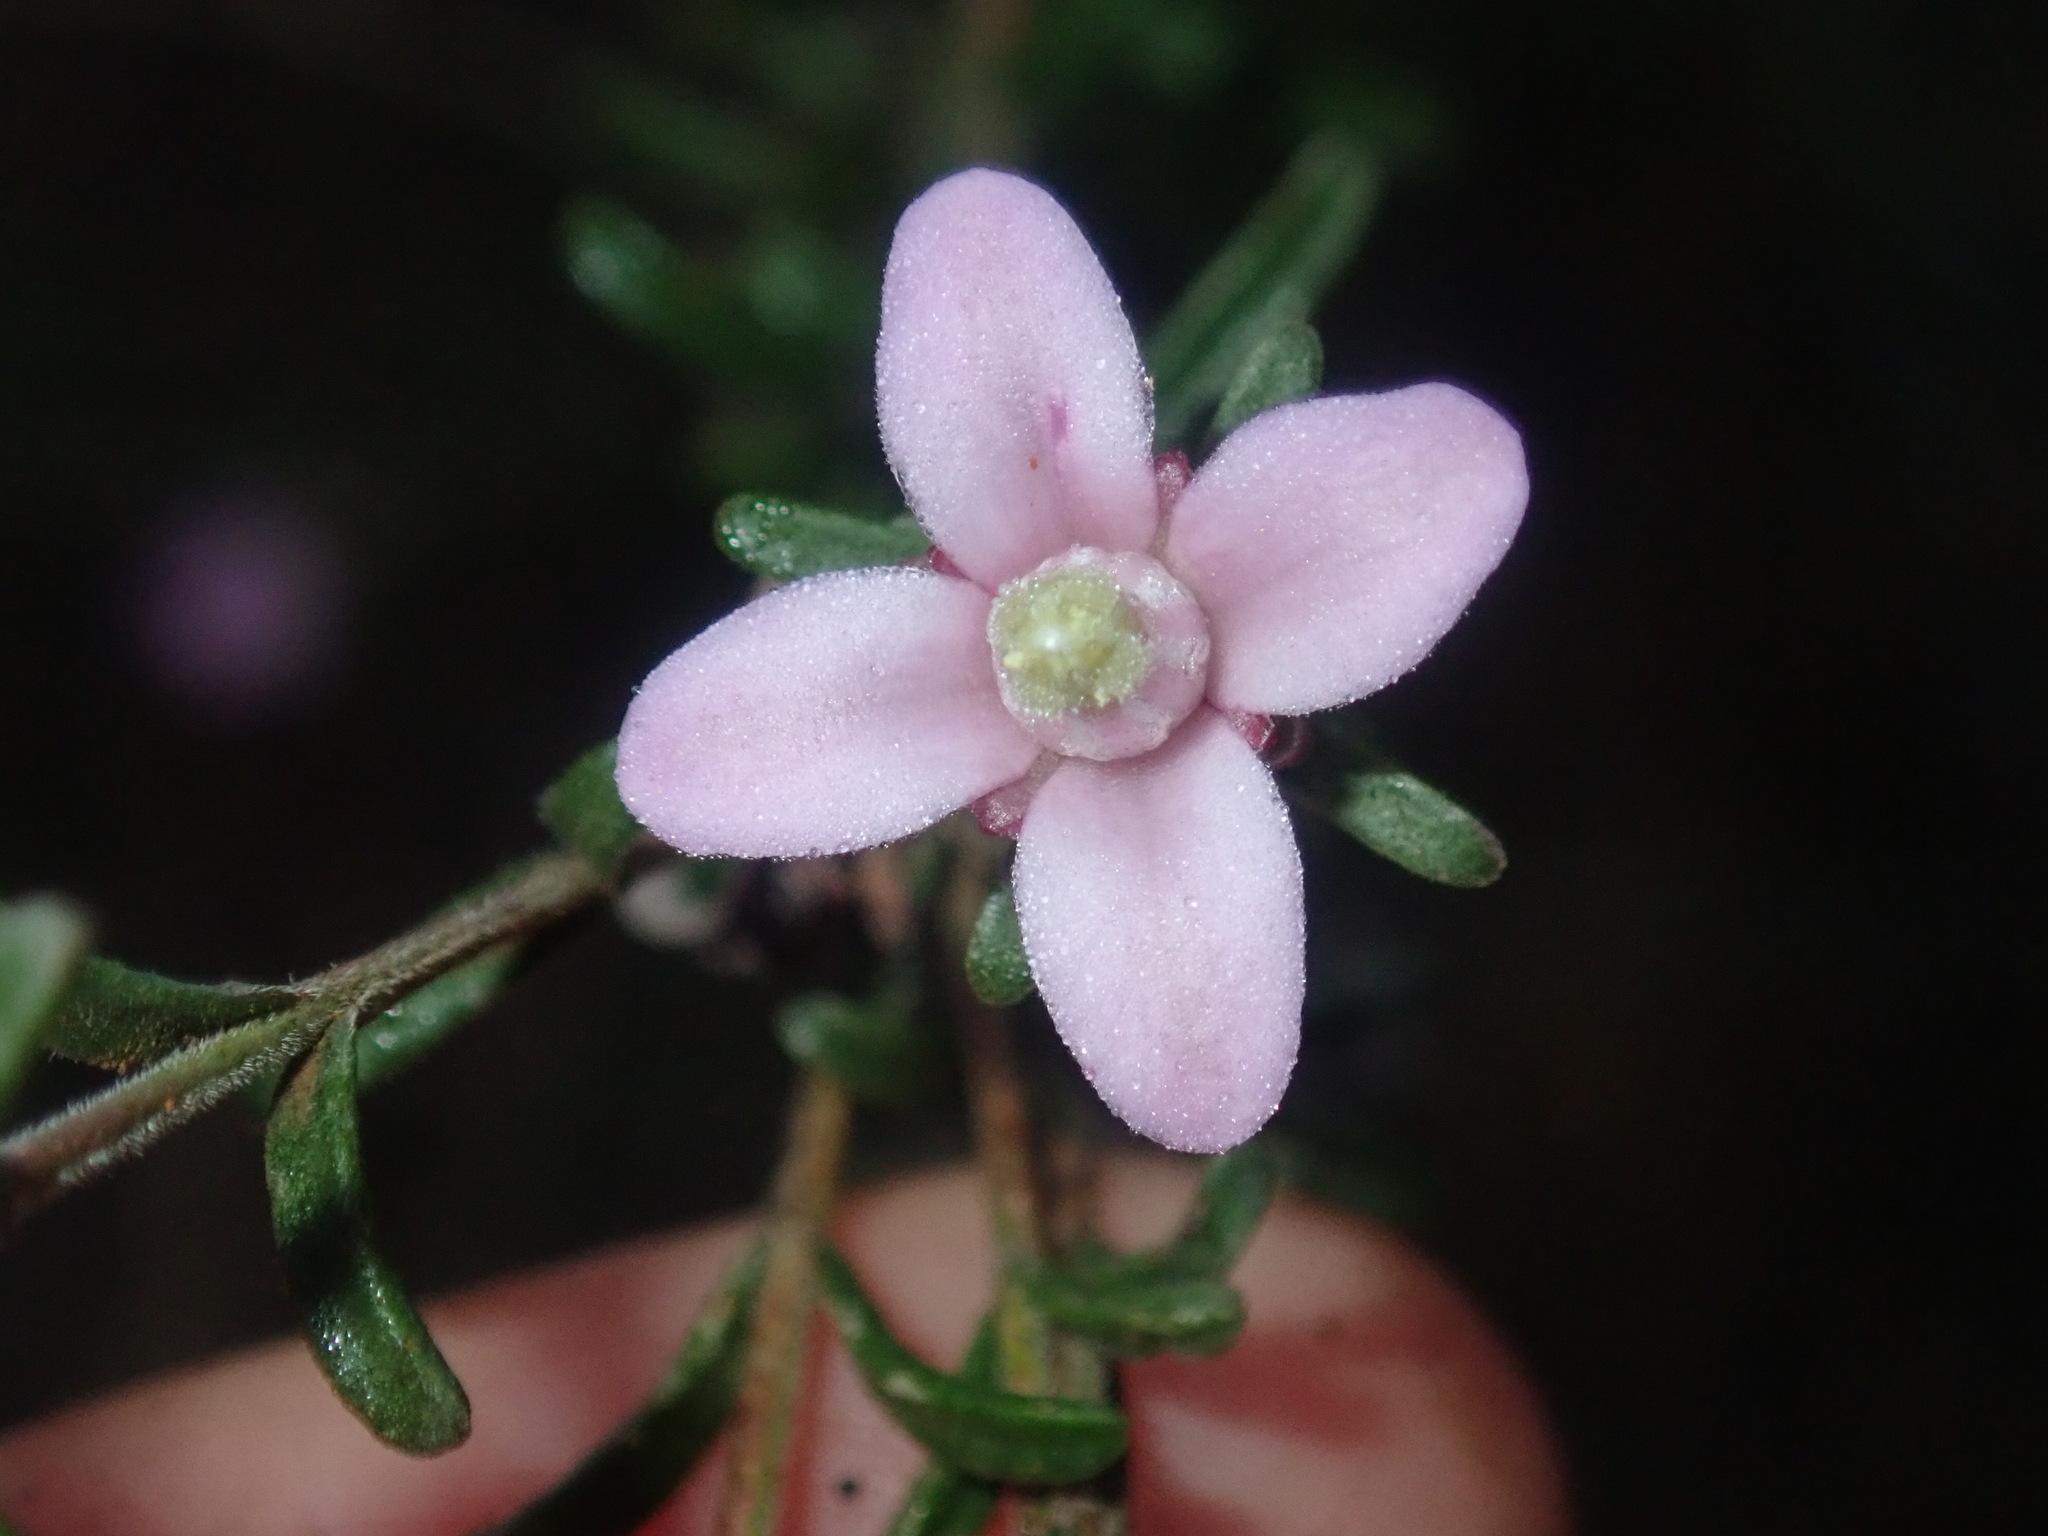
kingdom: Plantae
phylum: Tracheophyta
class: Magnoliopsida
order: Sapindales
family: Rutaceae
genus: Boronia
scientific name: Boronia capitata
